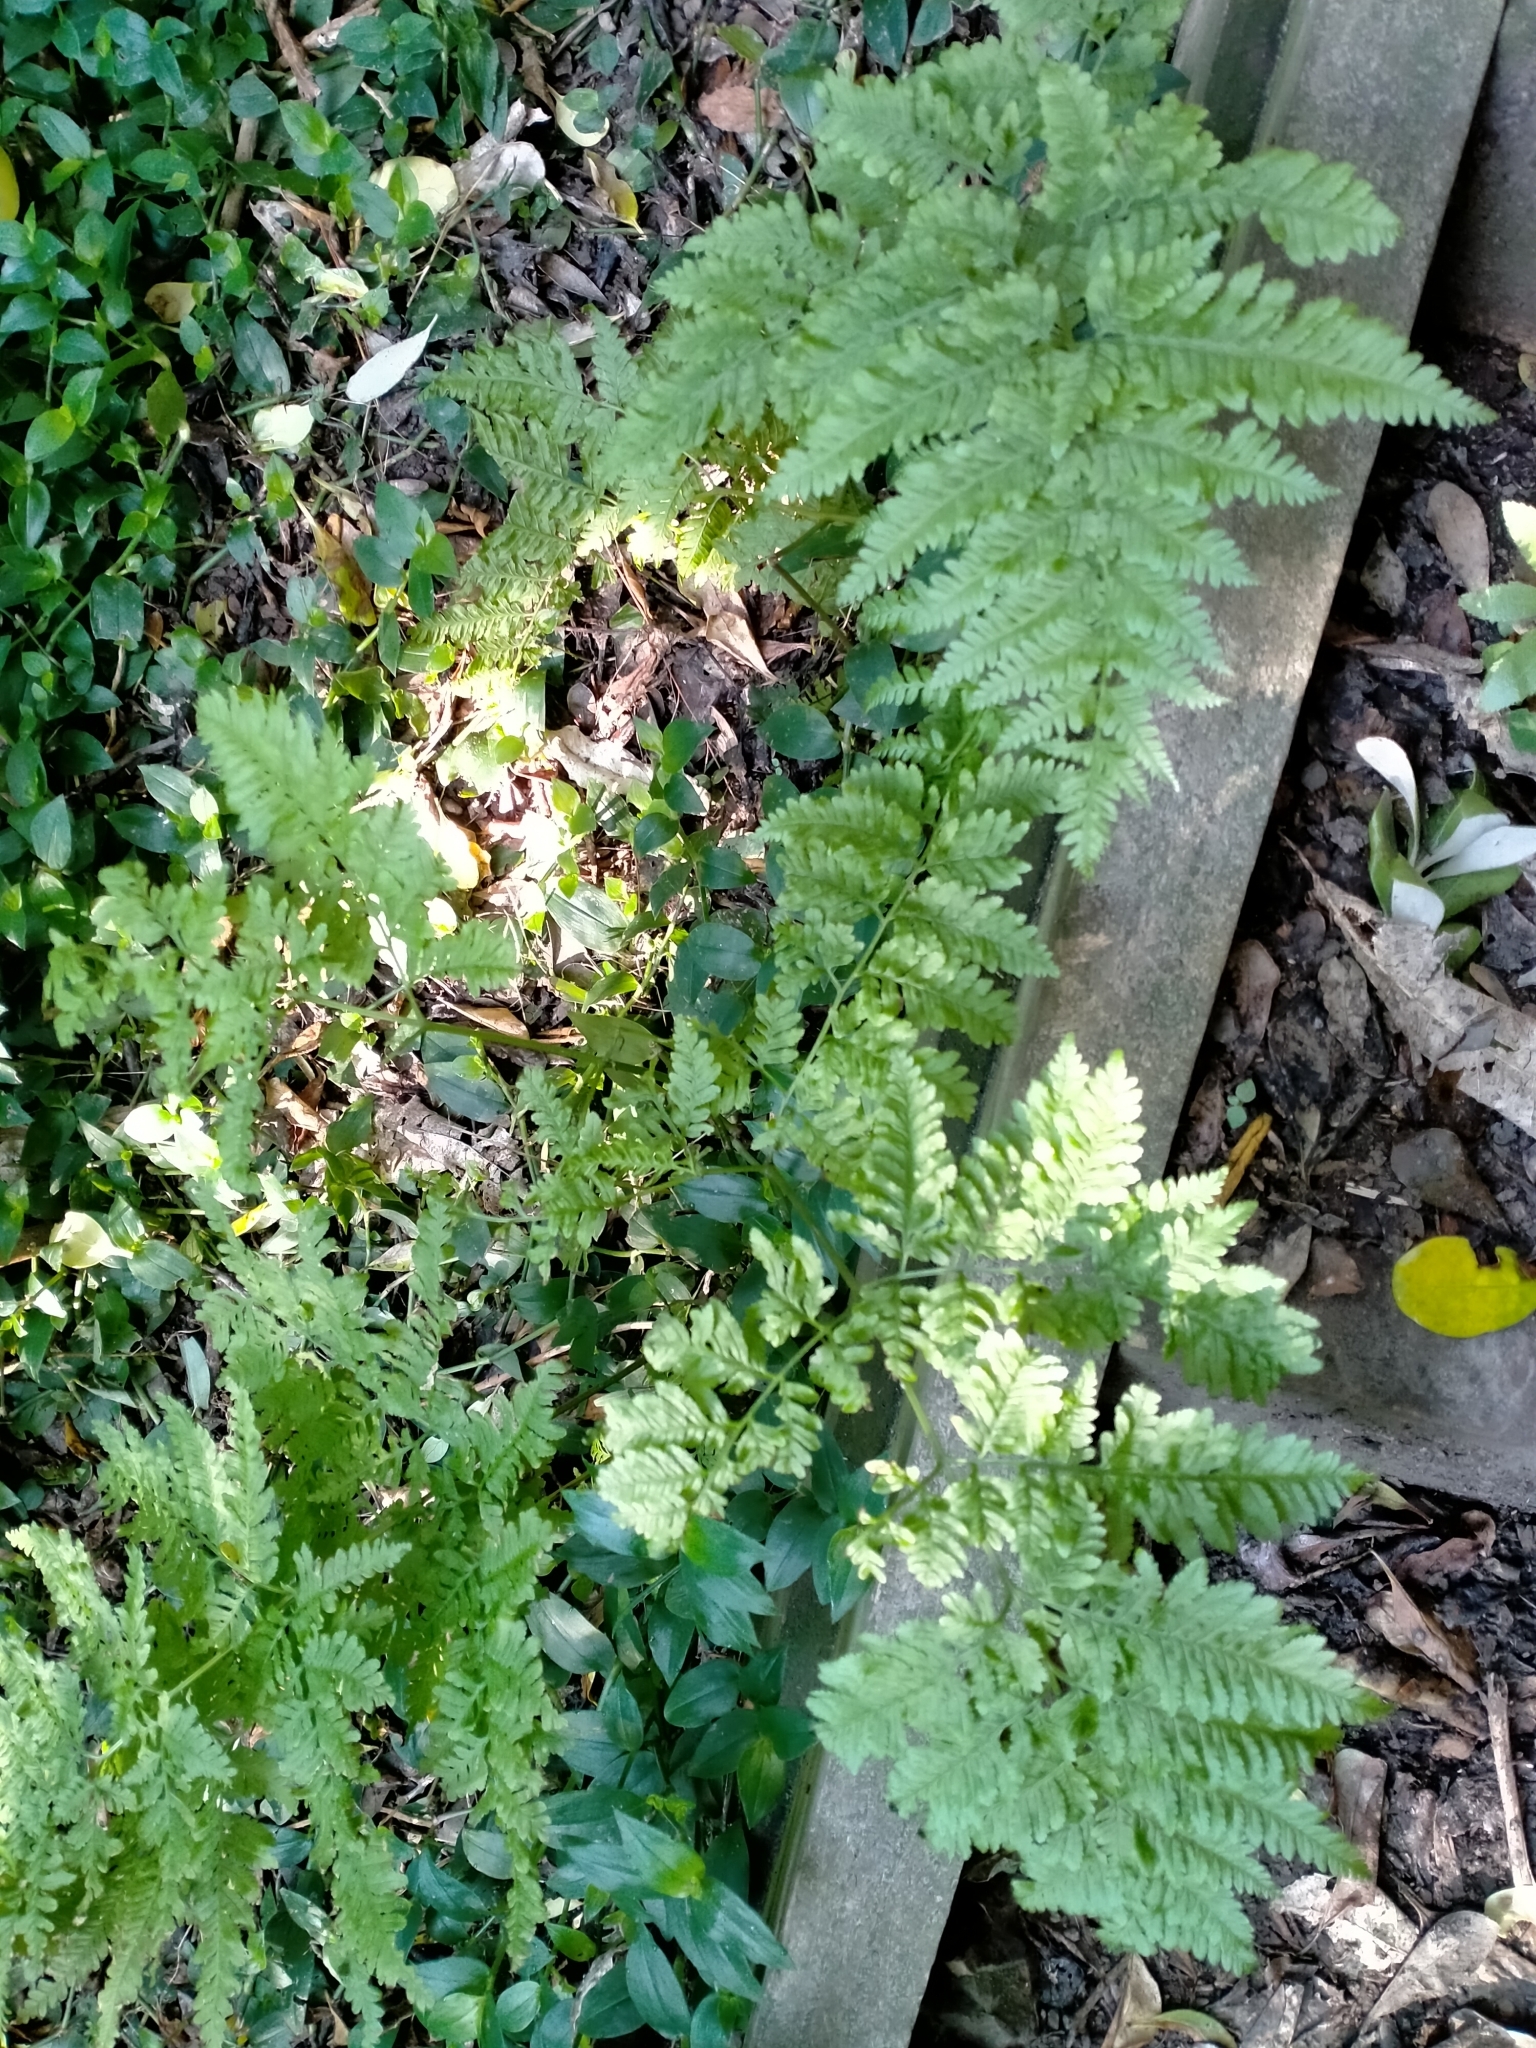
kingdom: Plantae
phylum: Tracheophyta
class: Polypodiopsida
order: Polypodiales
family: Pteridaceae
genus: Pteris
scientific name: Pteris tremula
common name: Australian brake
